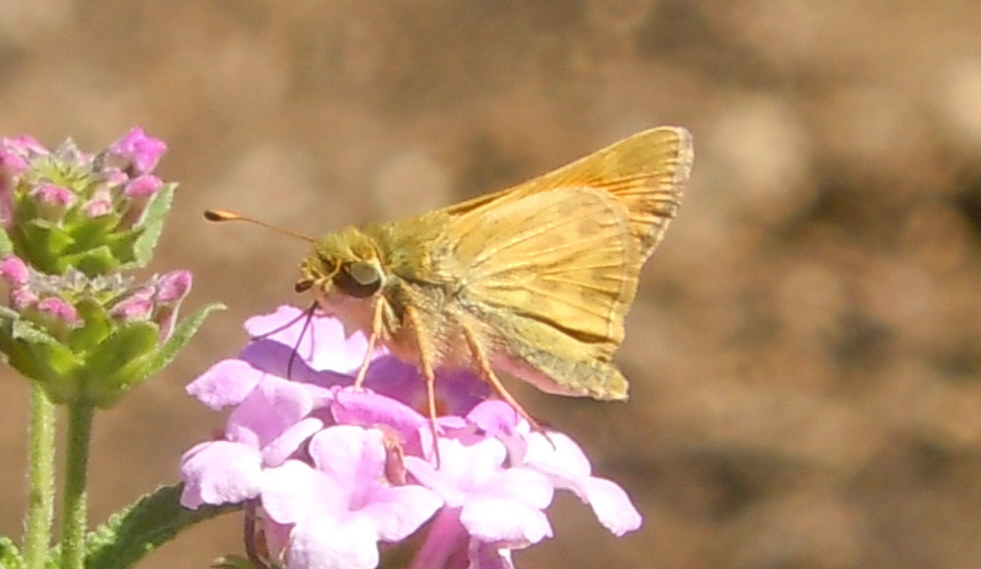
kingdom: Animalia
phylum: Arthropoda
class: Insecta
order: Lepidoptera
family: Hesperiidae
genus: Atalopedes
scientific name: Atalopedes campestris
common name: Sachem
